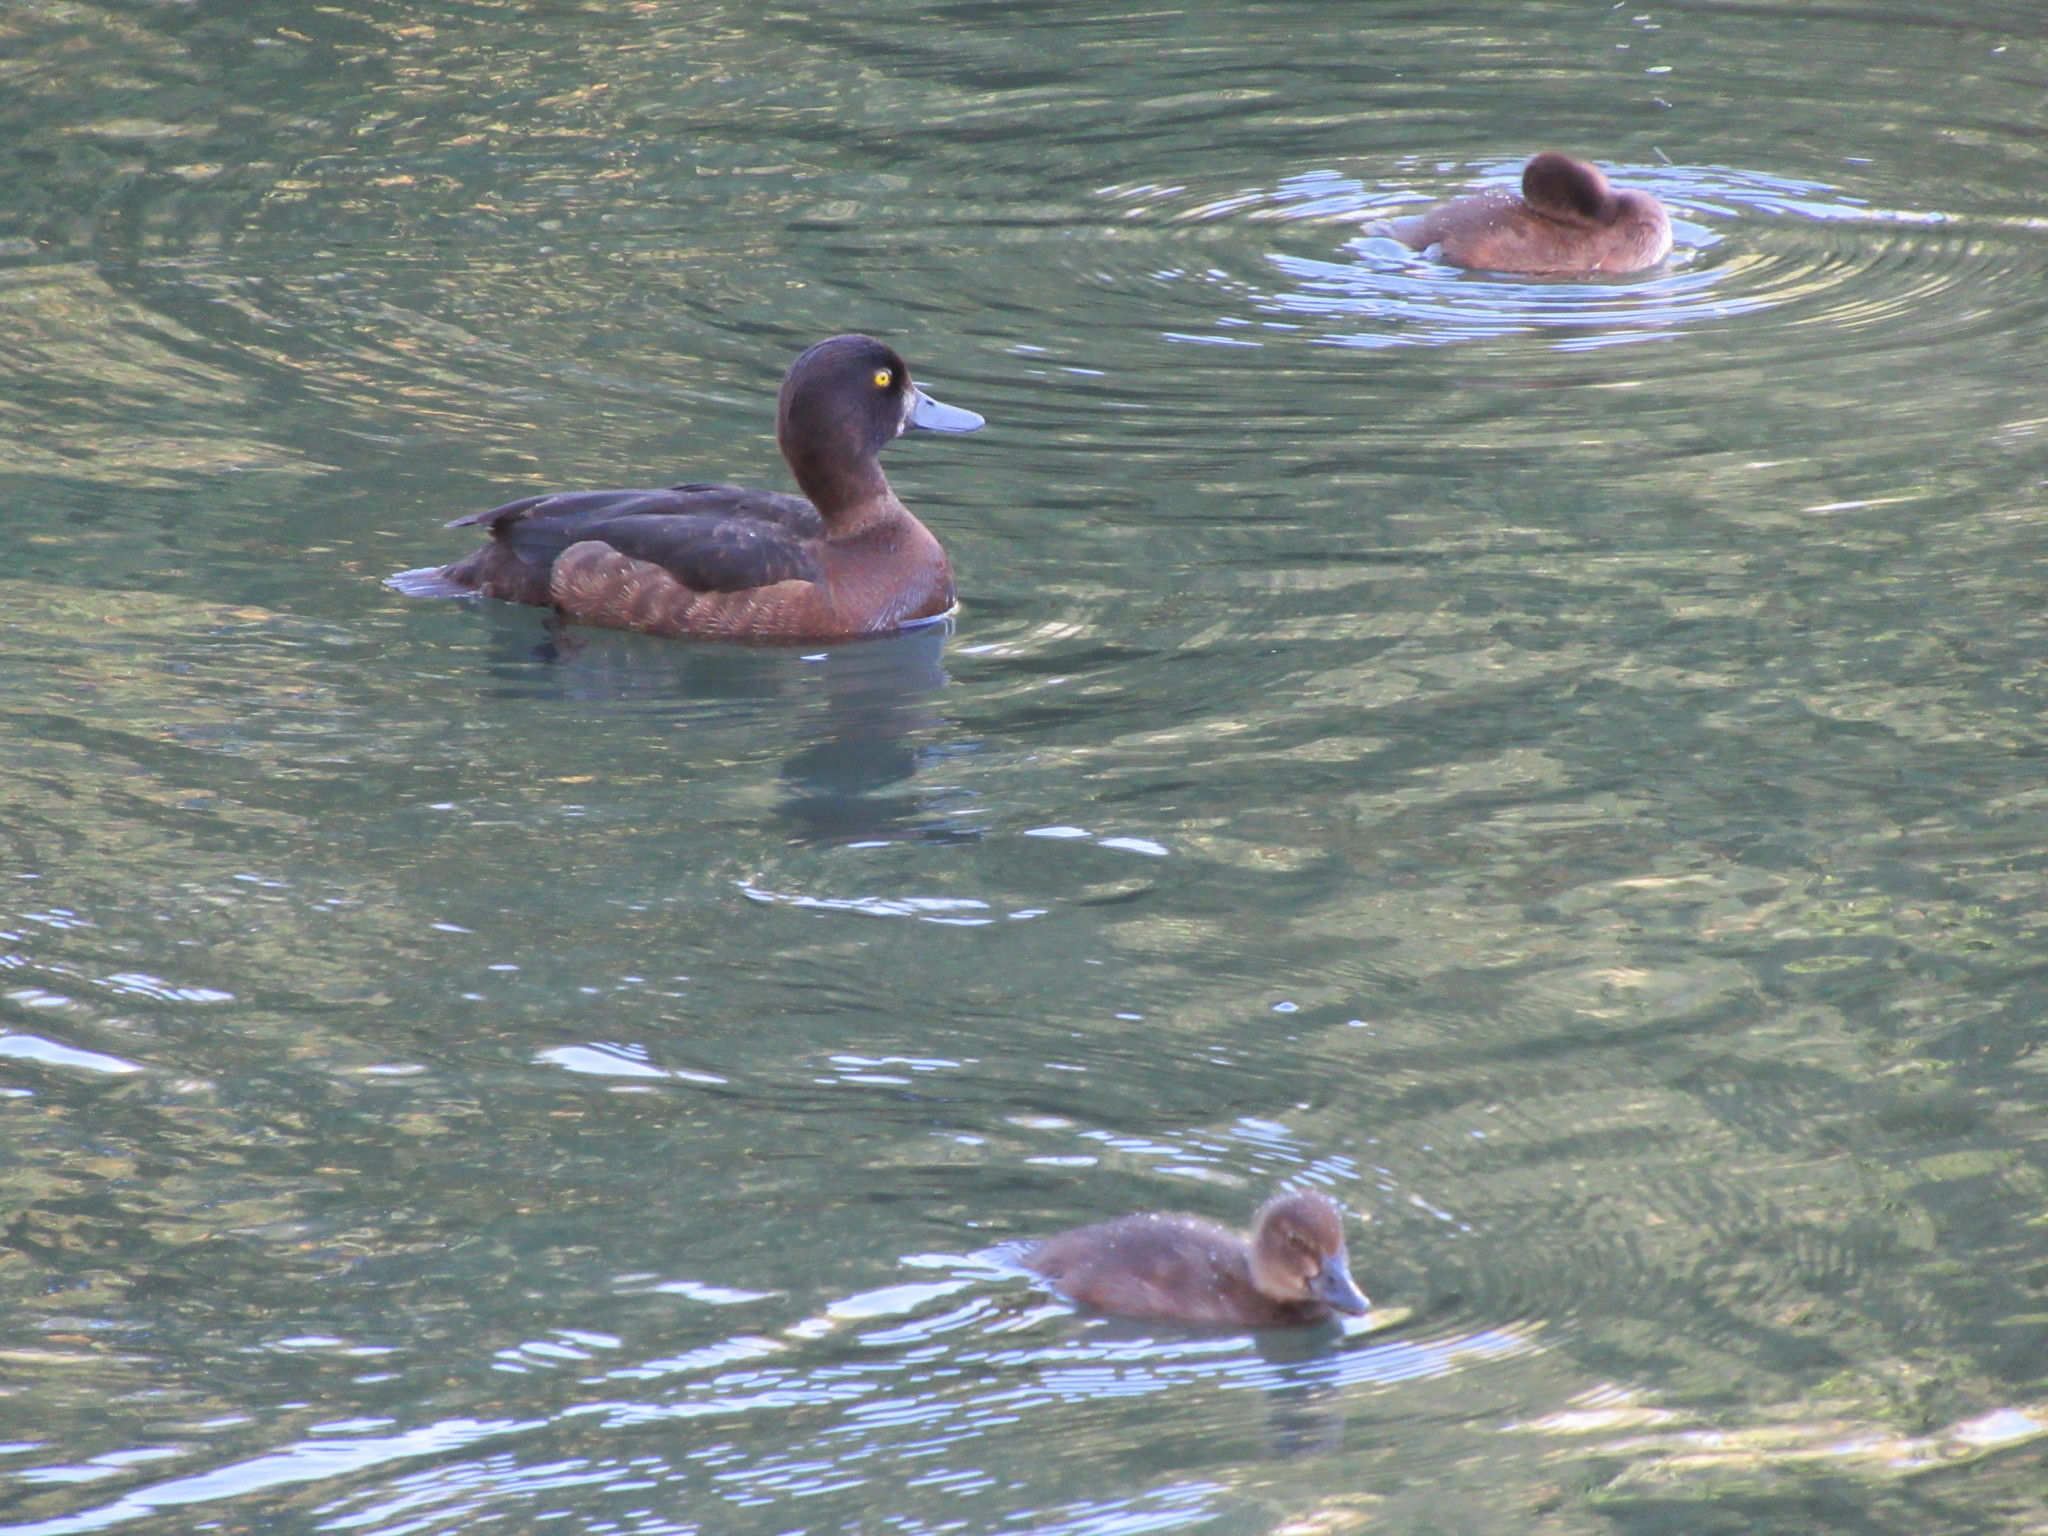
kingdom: Animalia
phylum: Chordata
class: Aves
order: Anseriformes
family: Anatidae
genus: Aythya
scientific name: Aythya fuligula
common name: Tufted duck
